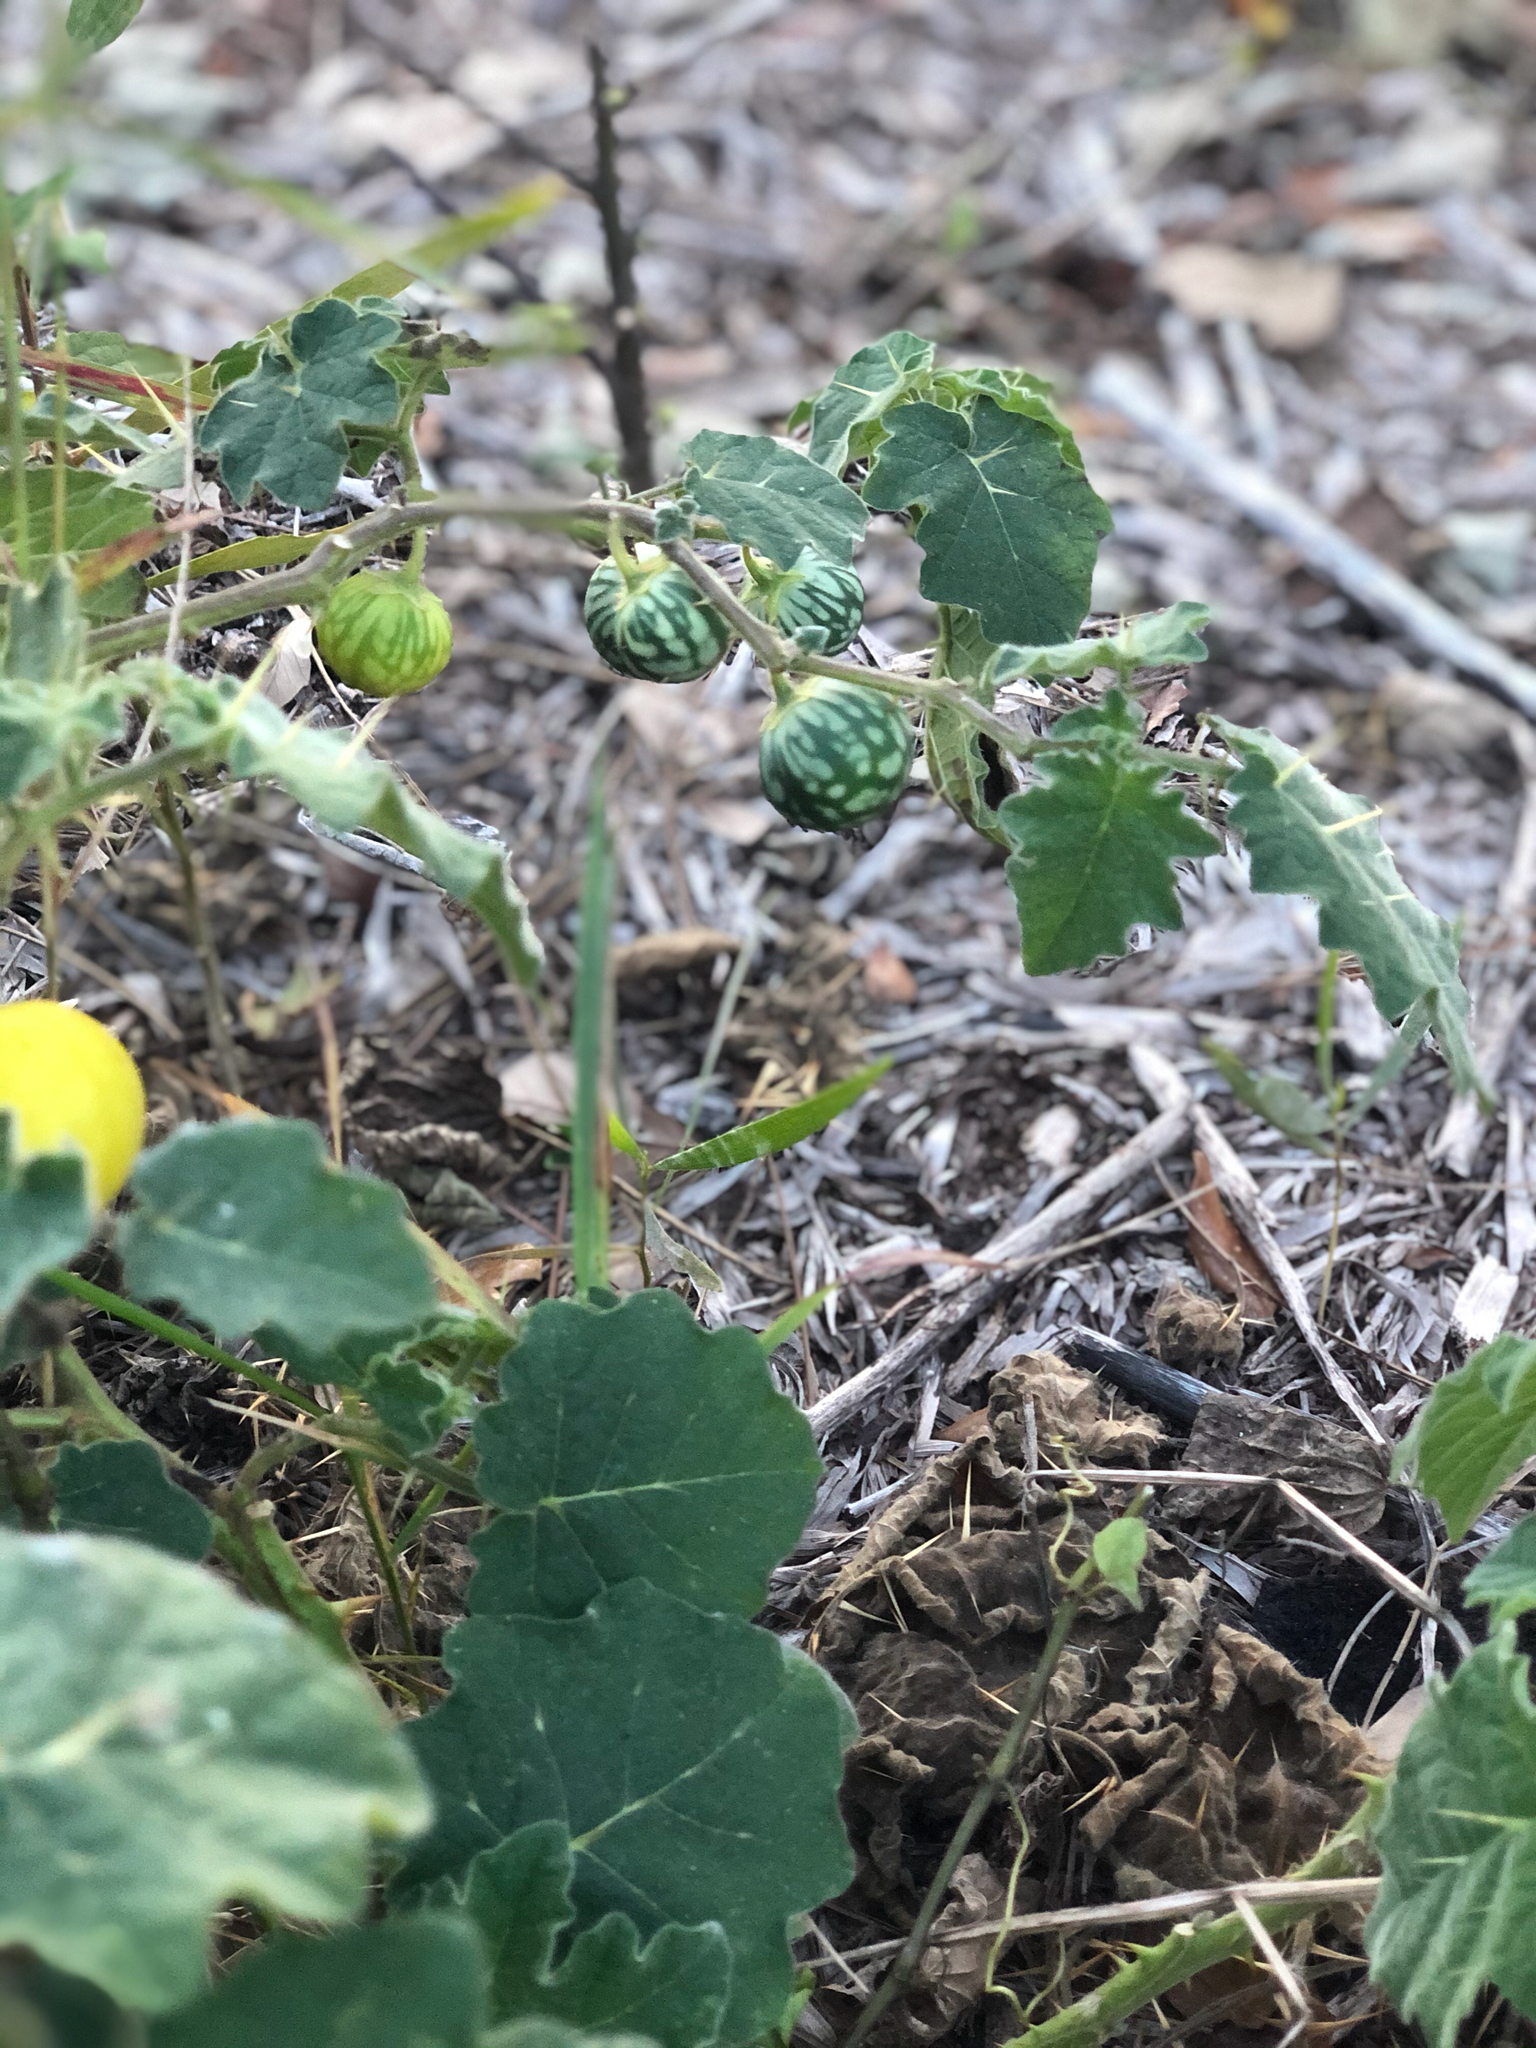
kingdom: Plantae
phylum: Tracheophyta
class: Magnoliopsida
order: Solanales
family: Solanaceae
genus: Solanum
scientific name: Solanum viarum
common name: Tropical soda apple
